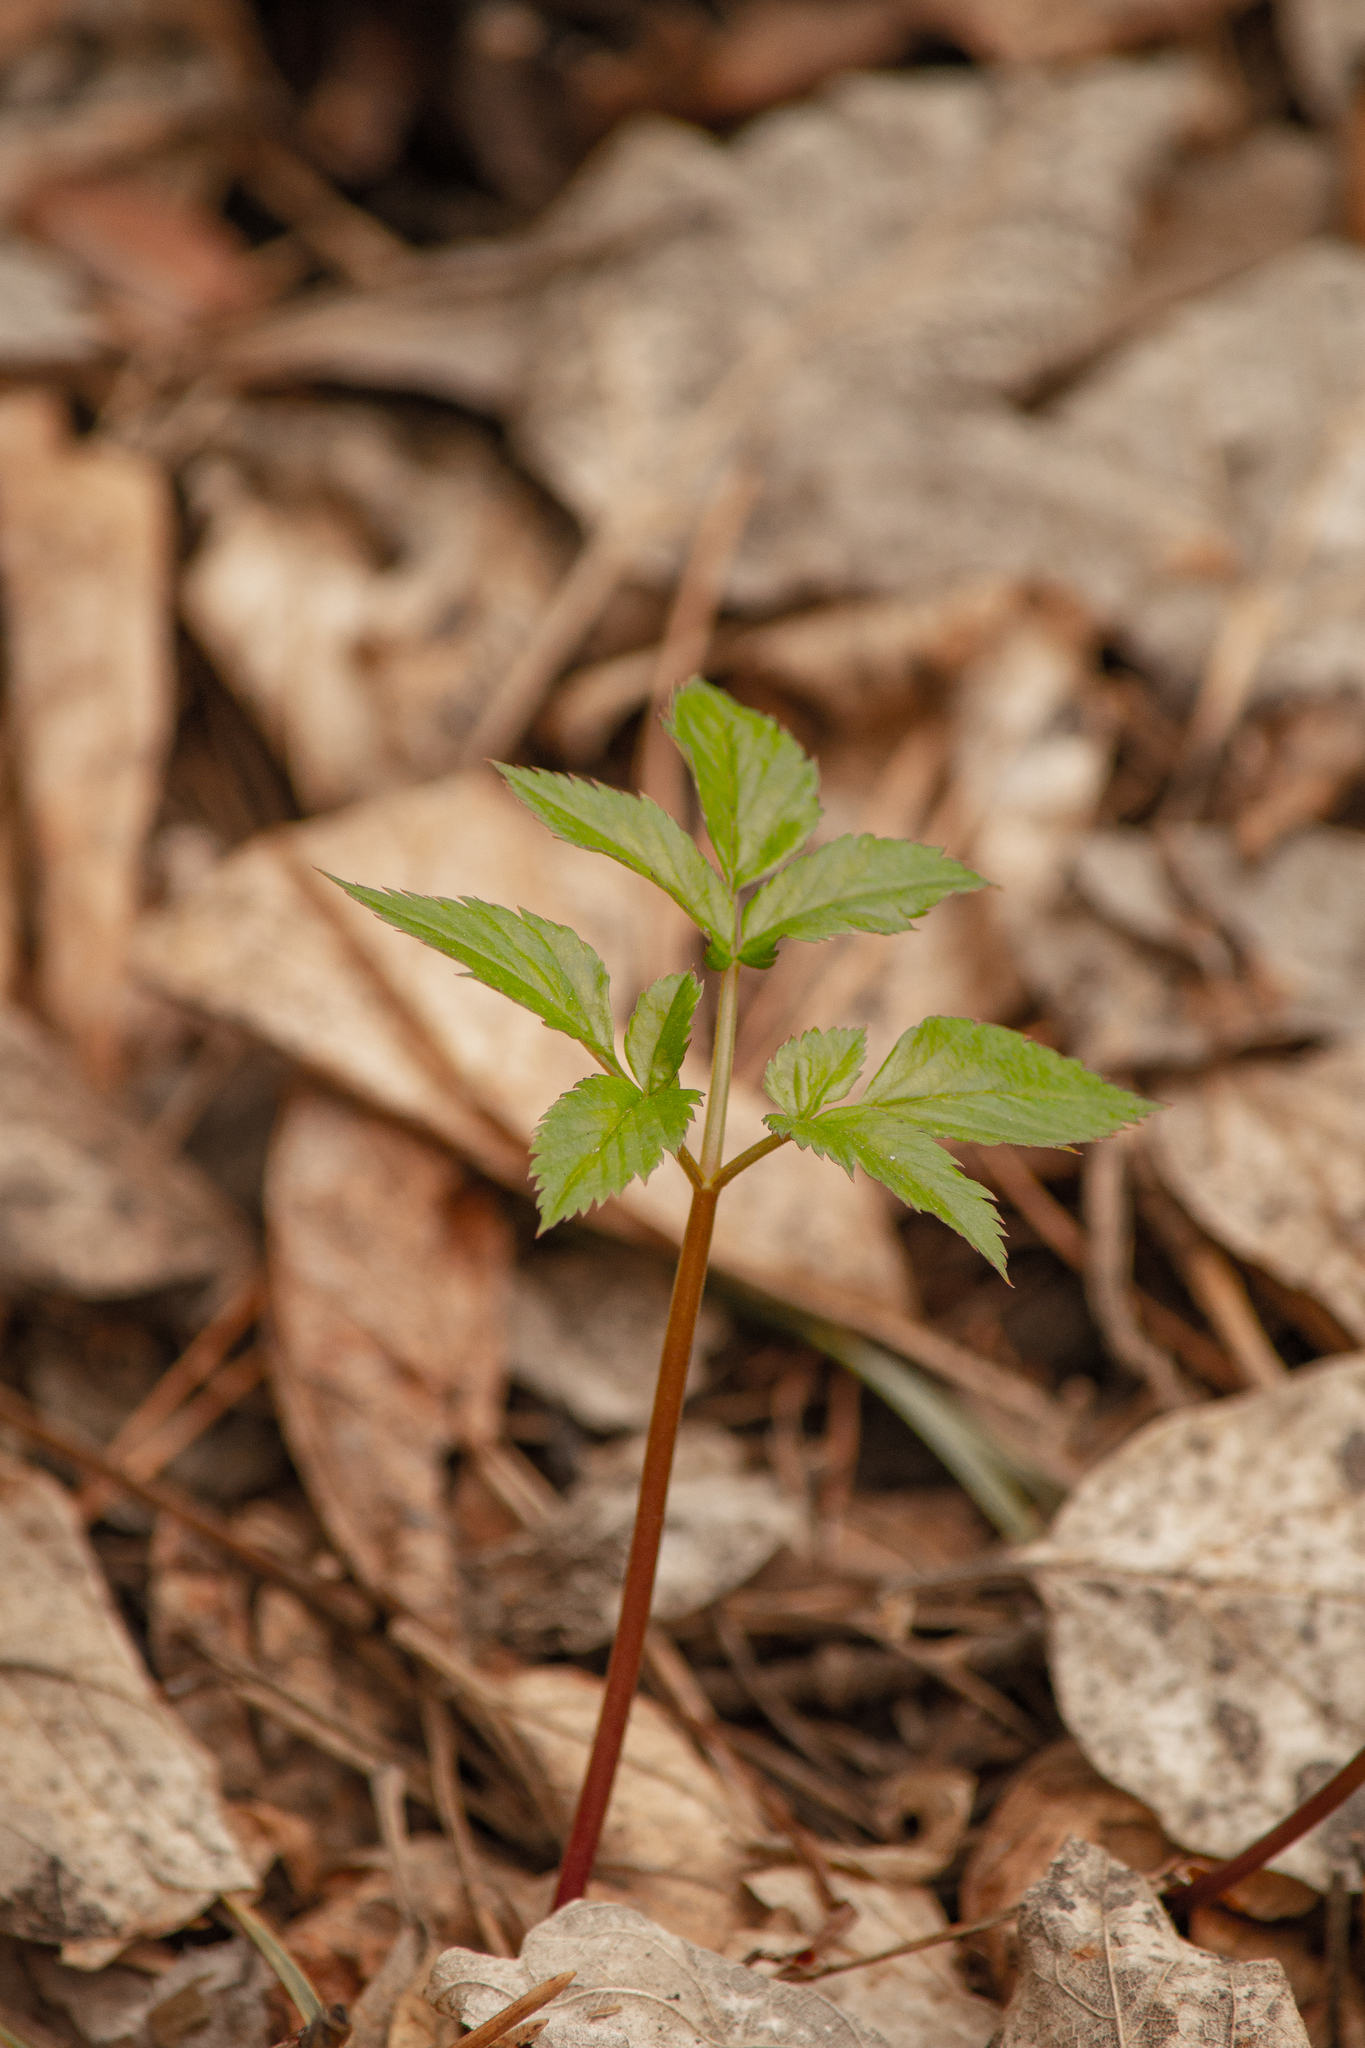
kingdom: Plantae
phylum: Tracheophyta
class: Magnoliopsida
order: Apiales
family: Apiaceae
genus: Aegopodium
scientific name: Aegopodium podagraria
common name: Ground-elder
